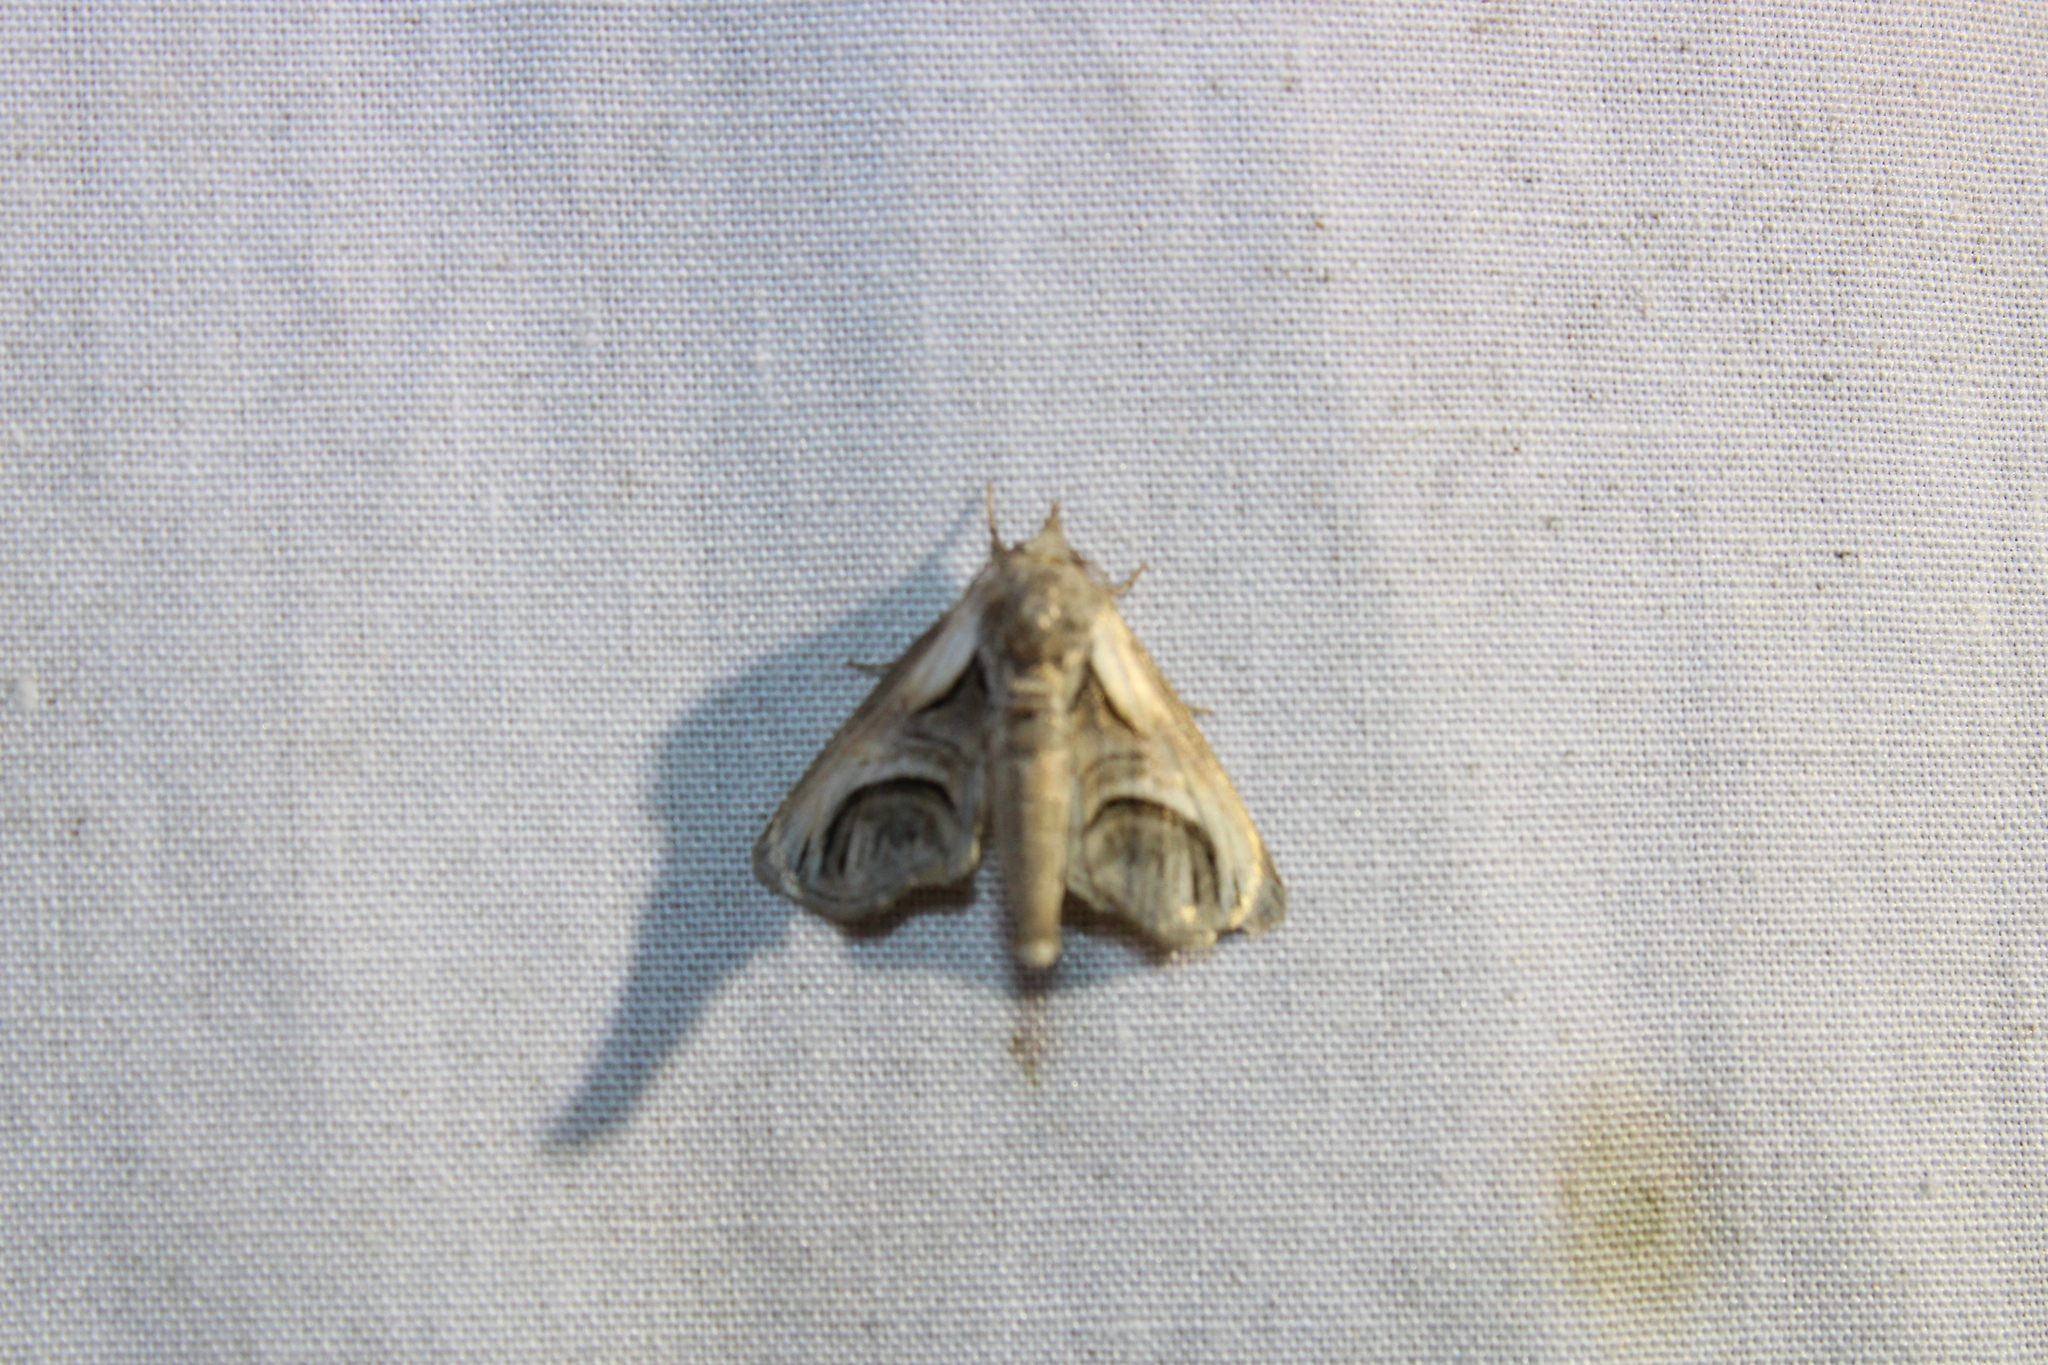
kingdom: Animalia
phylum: Arthropoda
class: Insecta
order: Lepidoptera
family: Euteliidae
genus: Paectes
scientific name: Paectes oculatrix
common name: Eyed paectes moth
